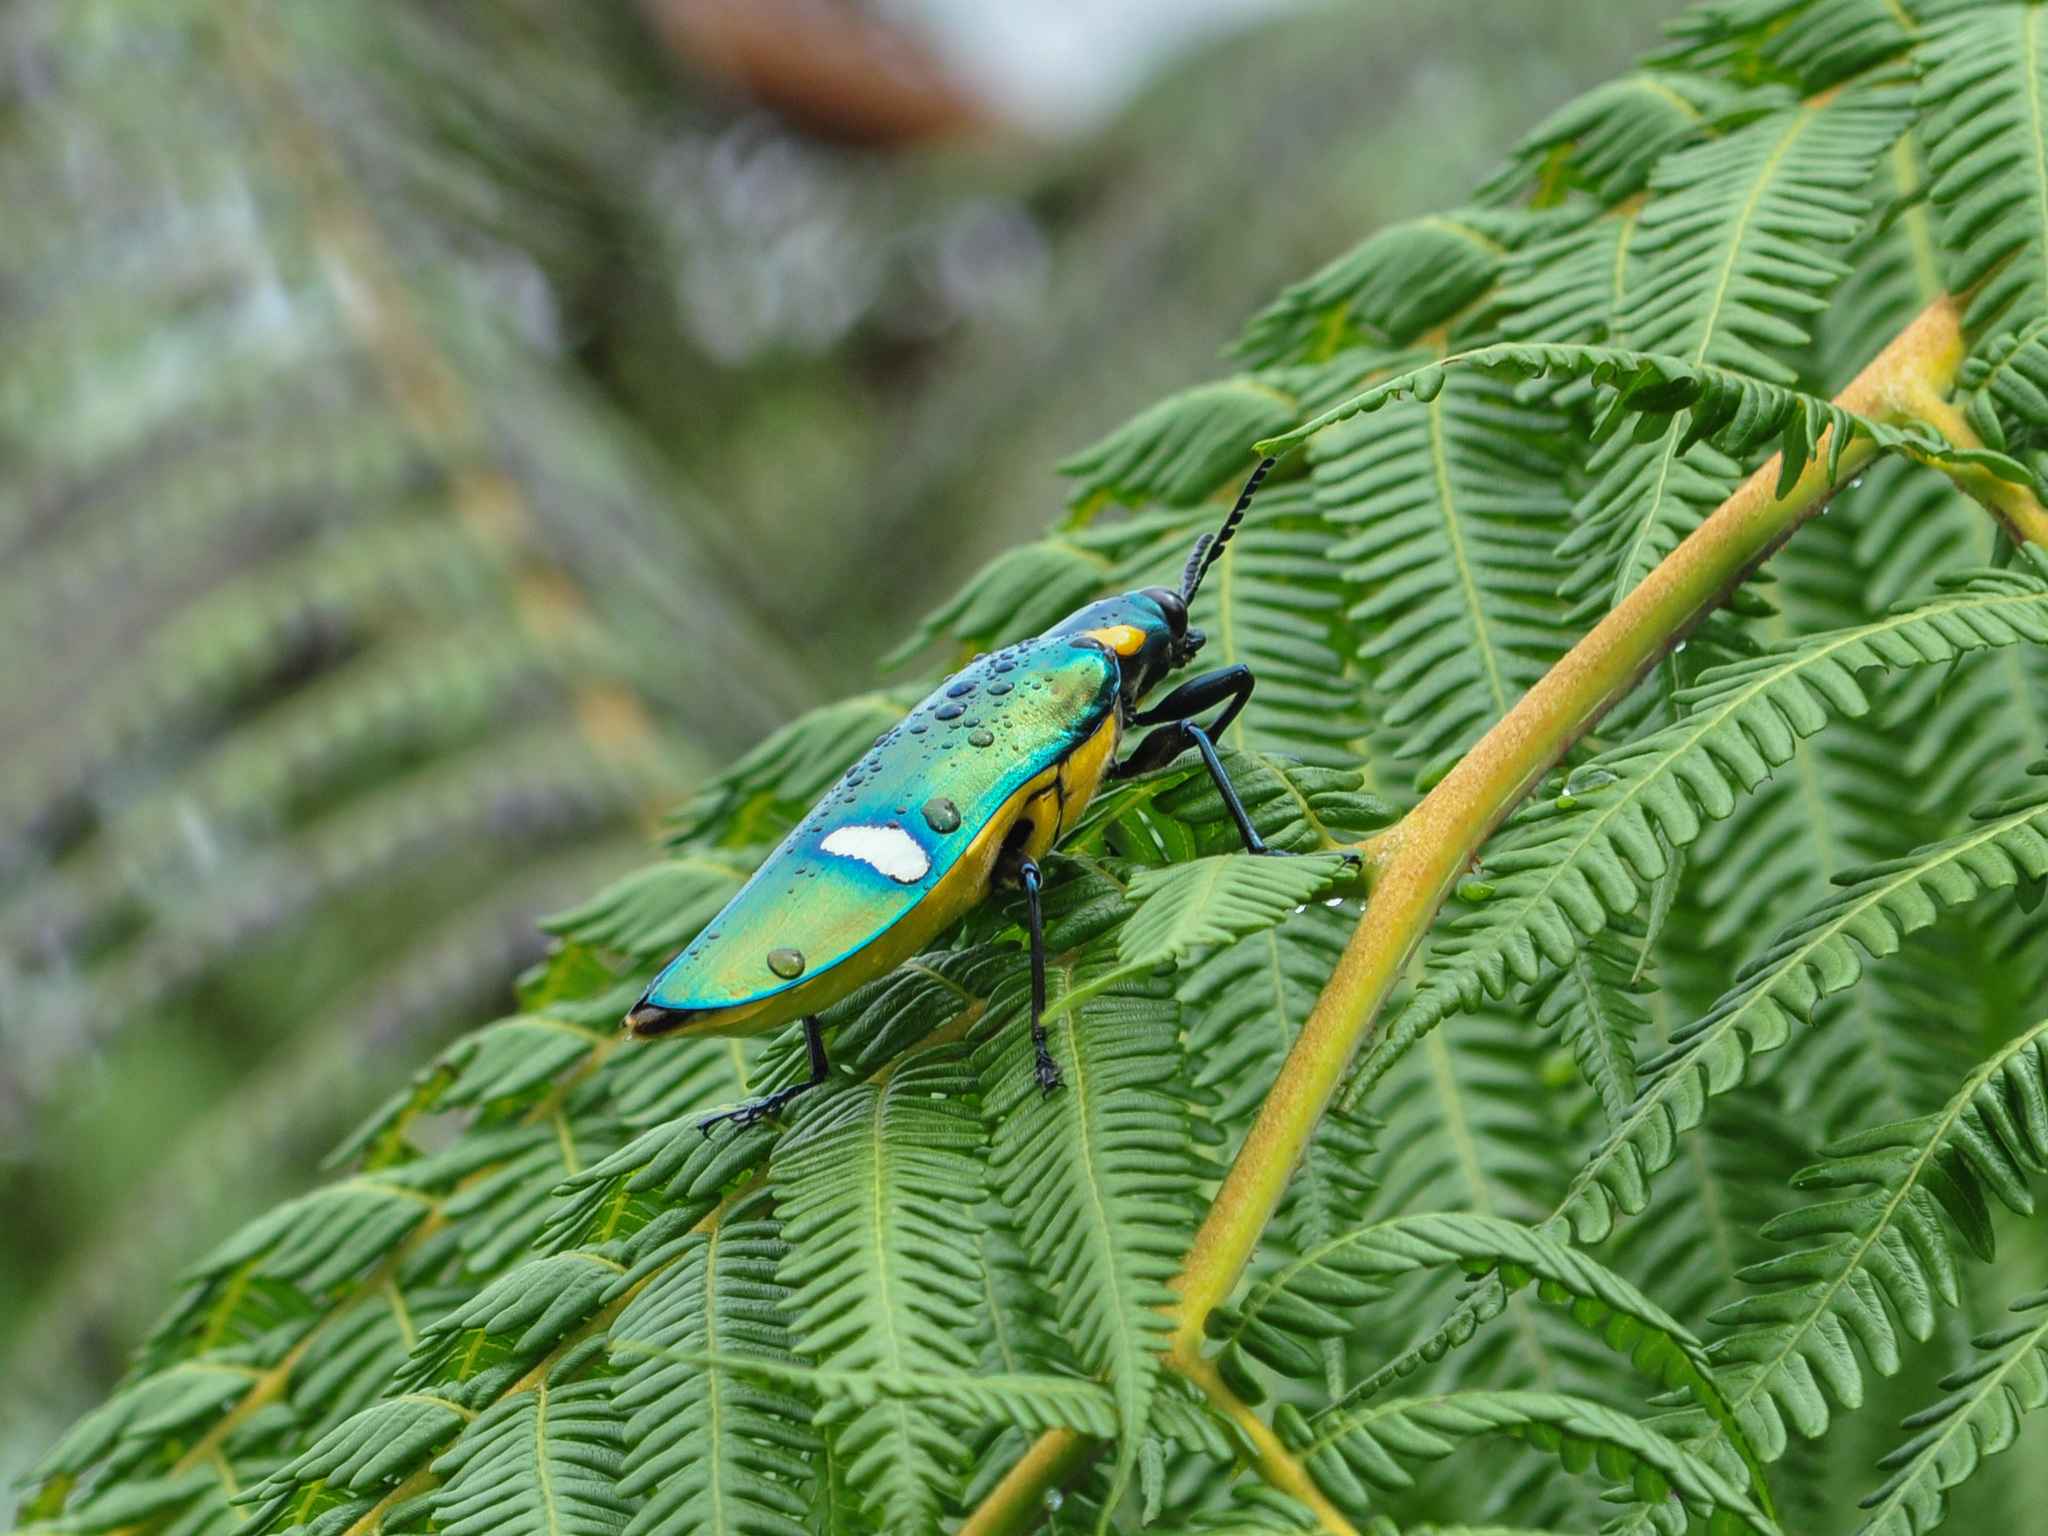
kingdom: Animalia
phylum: Arthropoda
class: Insecta
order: Coleoptera
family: Buprestidae
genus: Megaloxantha
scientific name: Megaloxantha bicolor
